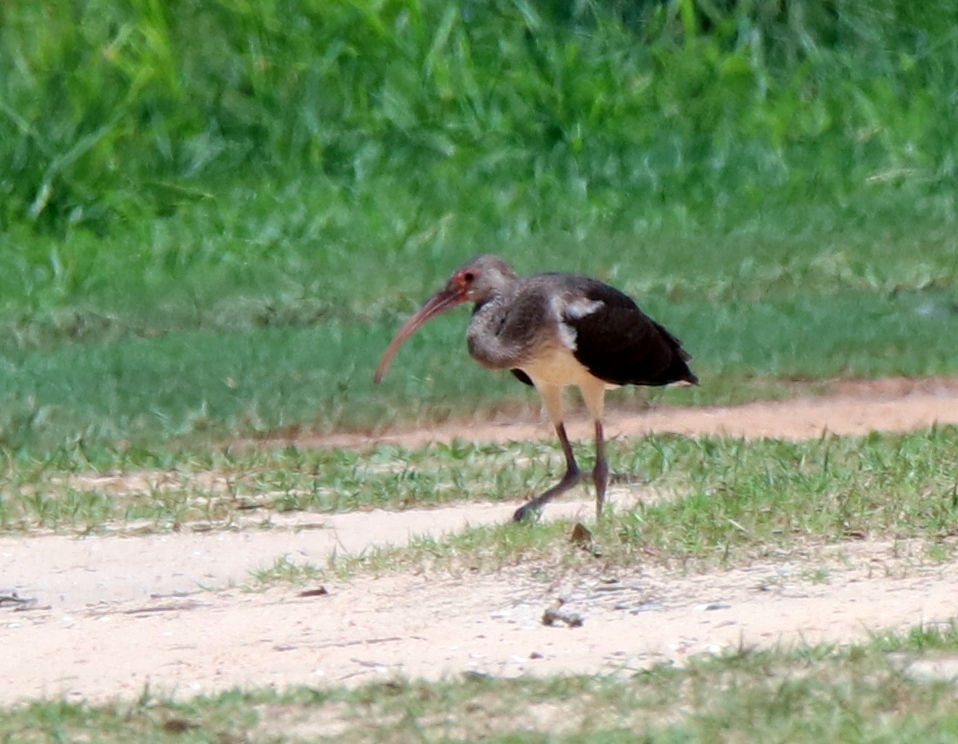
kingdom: Animalia
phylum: Chordata
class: Aves
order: Pelecaniformes
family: Threskiornithidae
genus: Eudocimus
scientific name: Eudocimus albus
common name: White ibis
